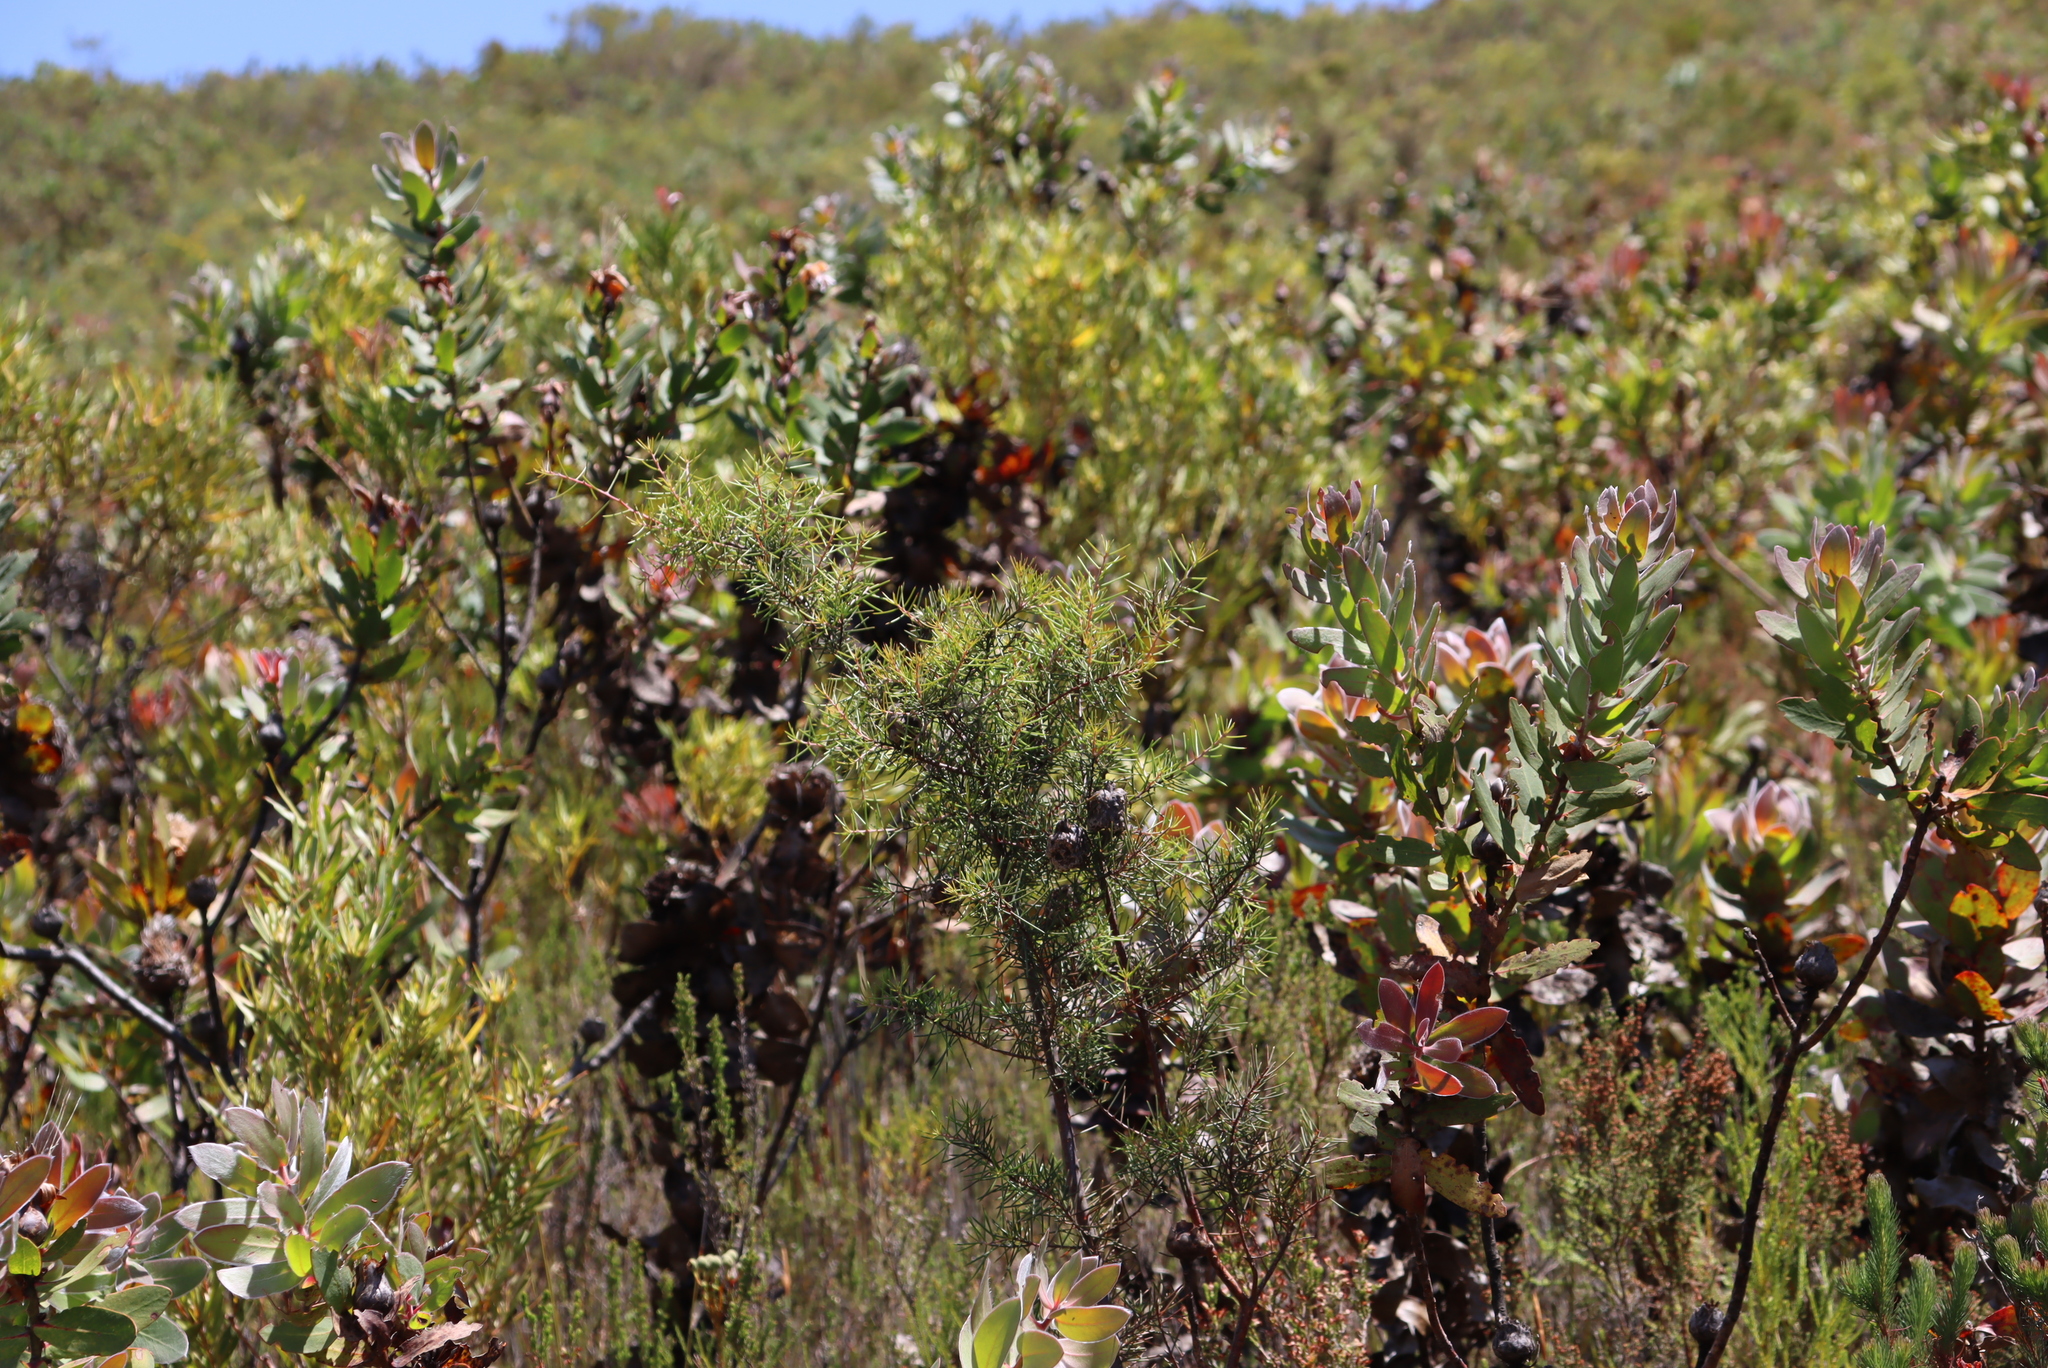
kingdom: Plantae
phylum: Tracheophyta
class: Magnoliopsida
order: Proteales
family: Proteaceae
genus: Protea
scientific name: Protea eximia
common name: Broad-leaved sugarbush
